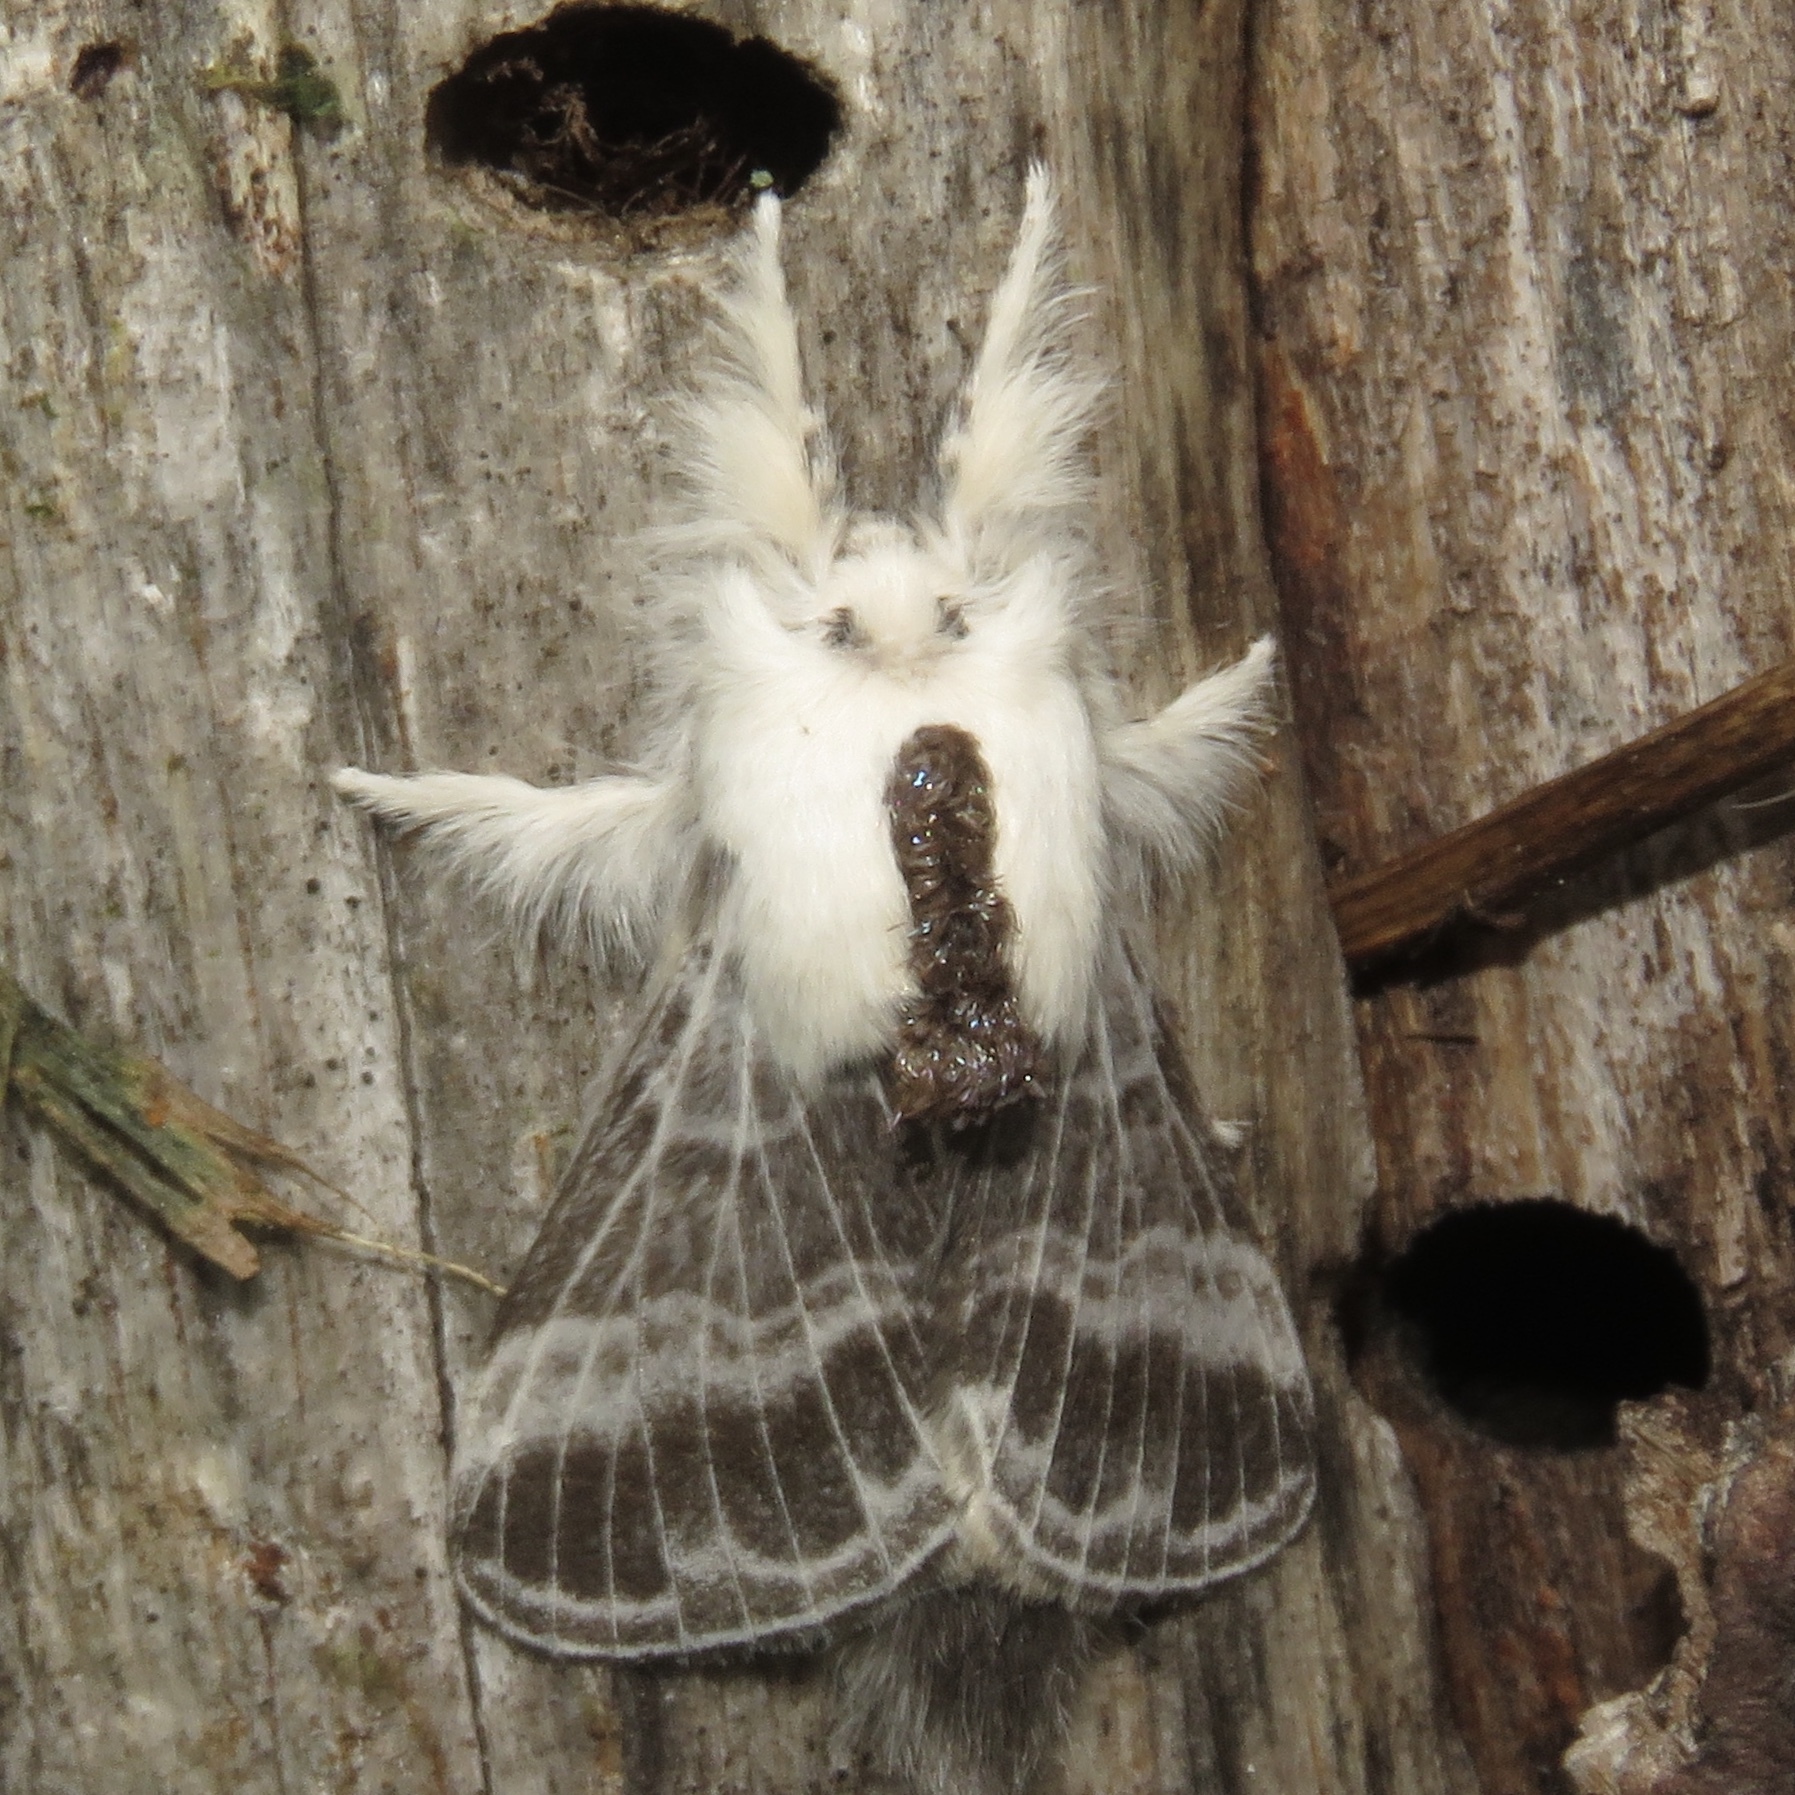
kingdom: Animalia
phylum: Arthropoda
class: Insecta
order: Lepidoptera
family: Lasiocampidae
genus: Tolype
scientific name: Tolype velleda
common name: Large tolype moth
